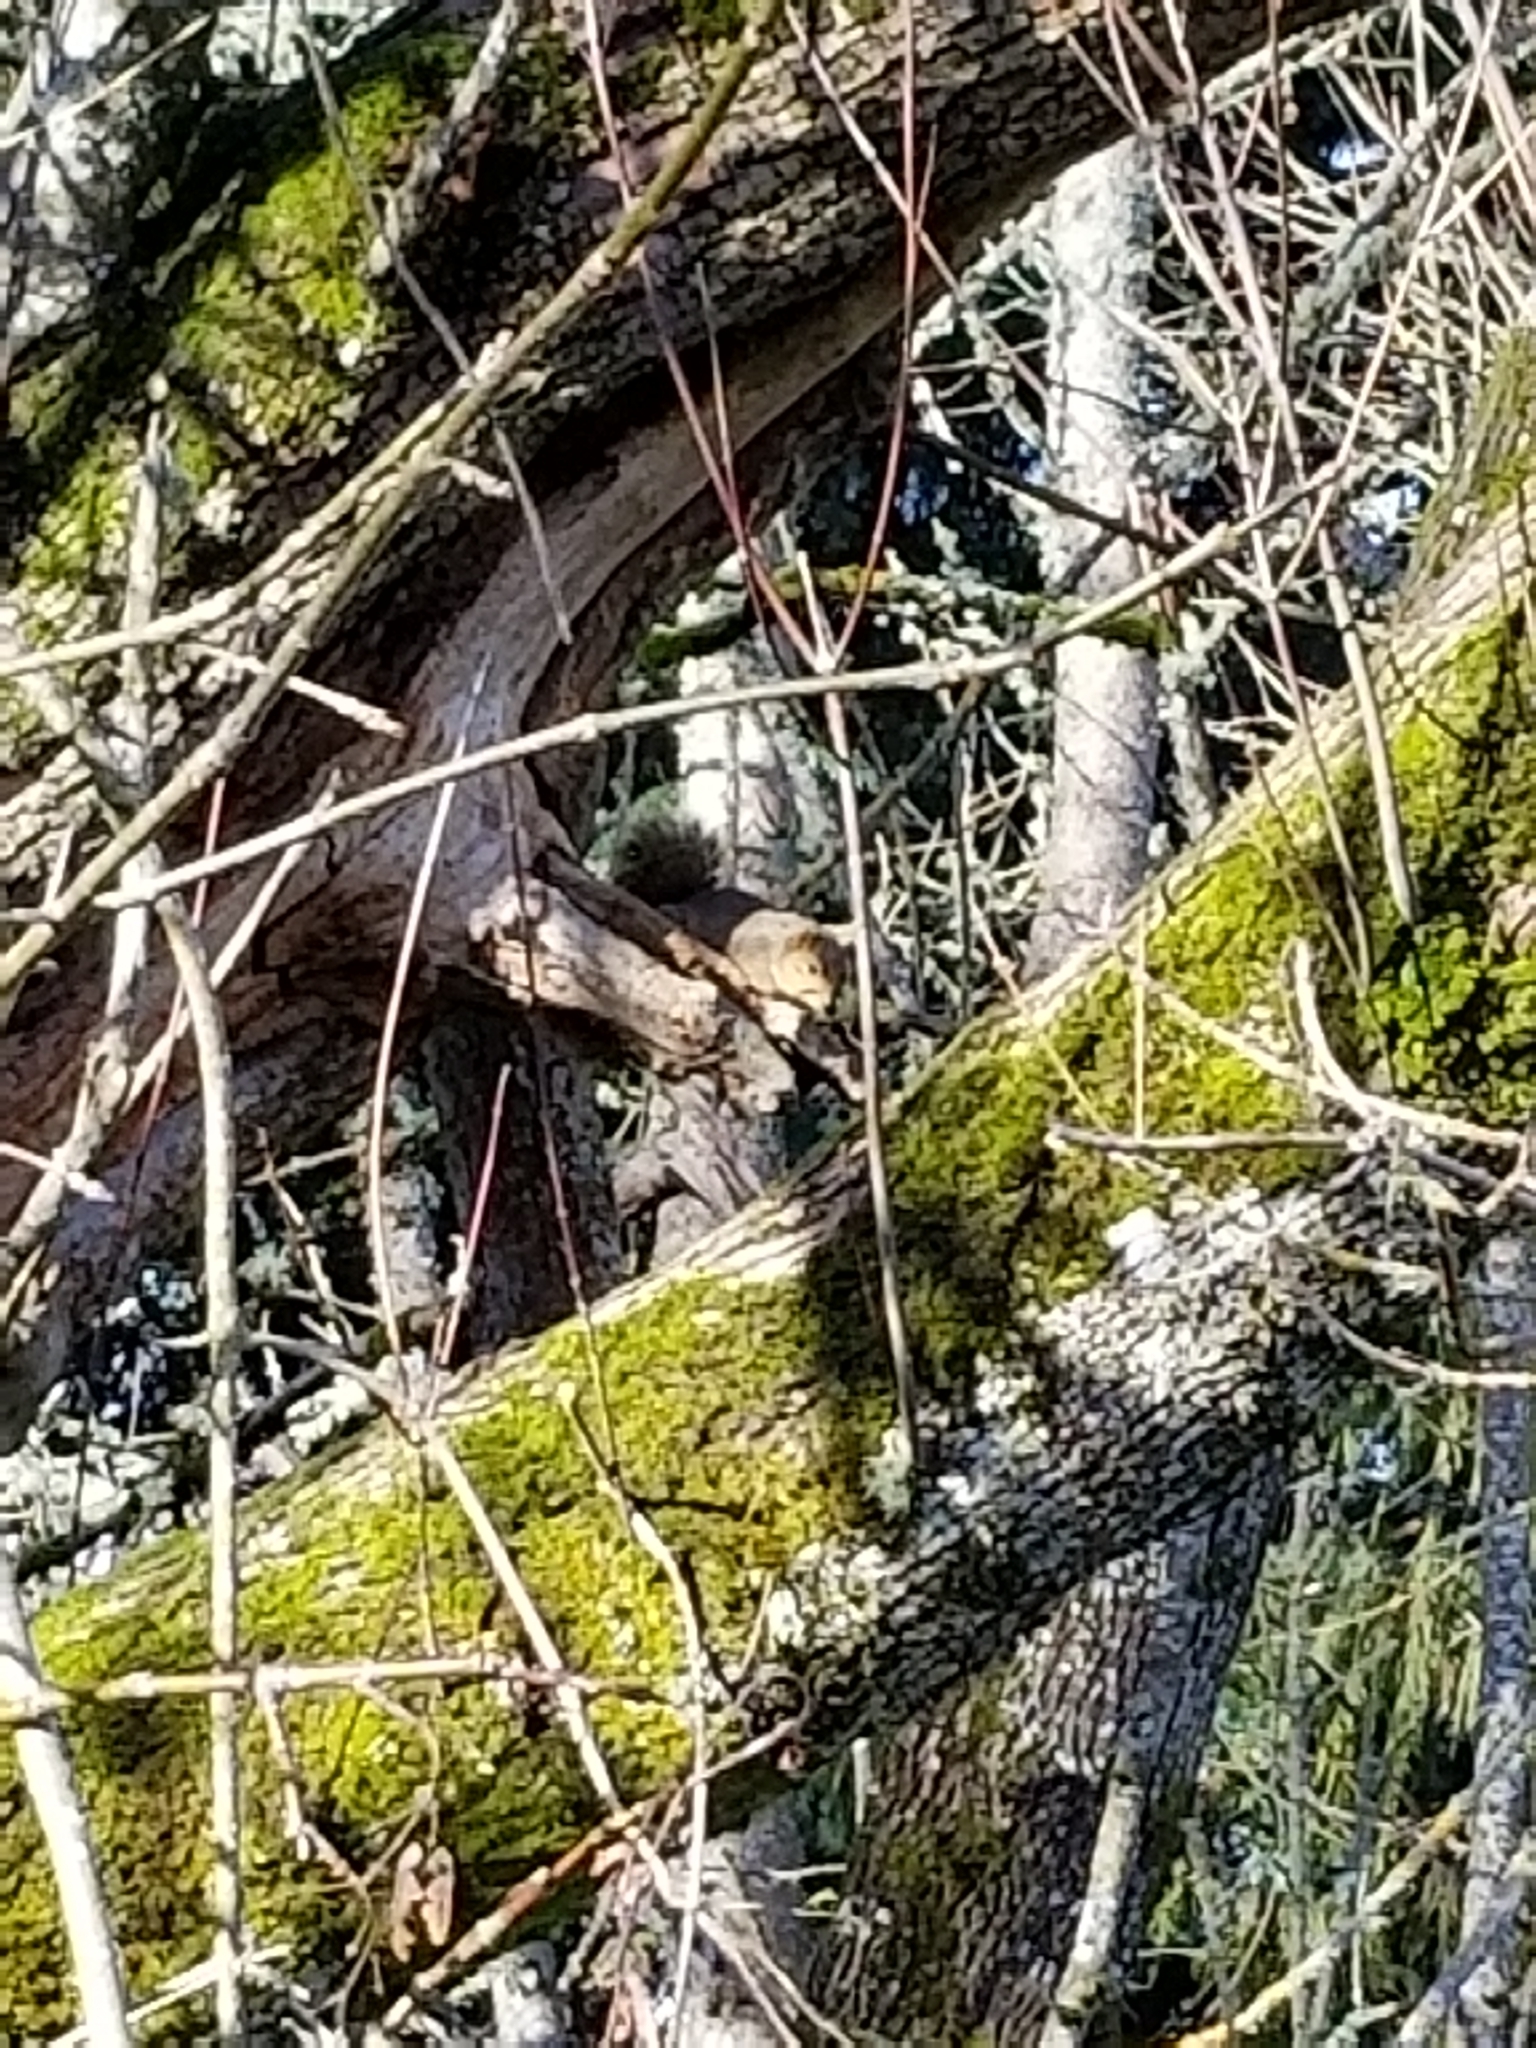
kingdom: Animalia
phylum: Chordata
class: Mammalia
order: Rodentia
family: Sciuridae
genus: Sciurus
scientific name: Sciurus niger
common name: Fox squirrel
